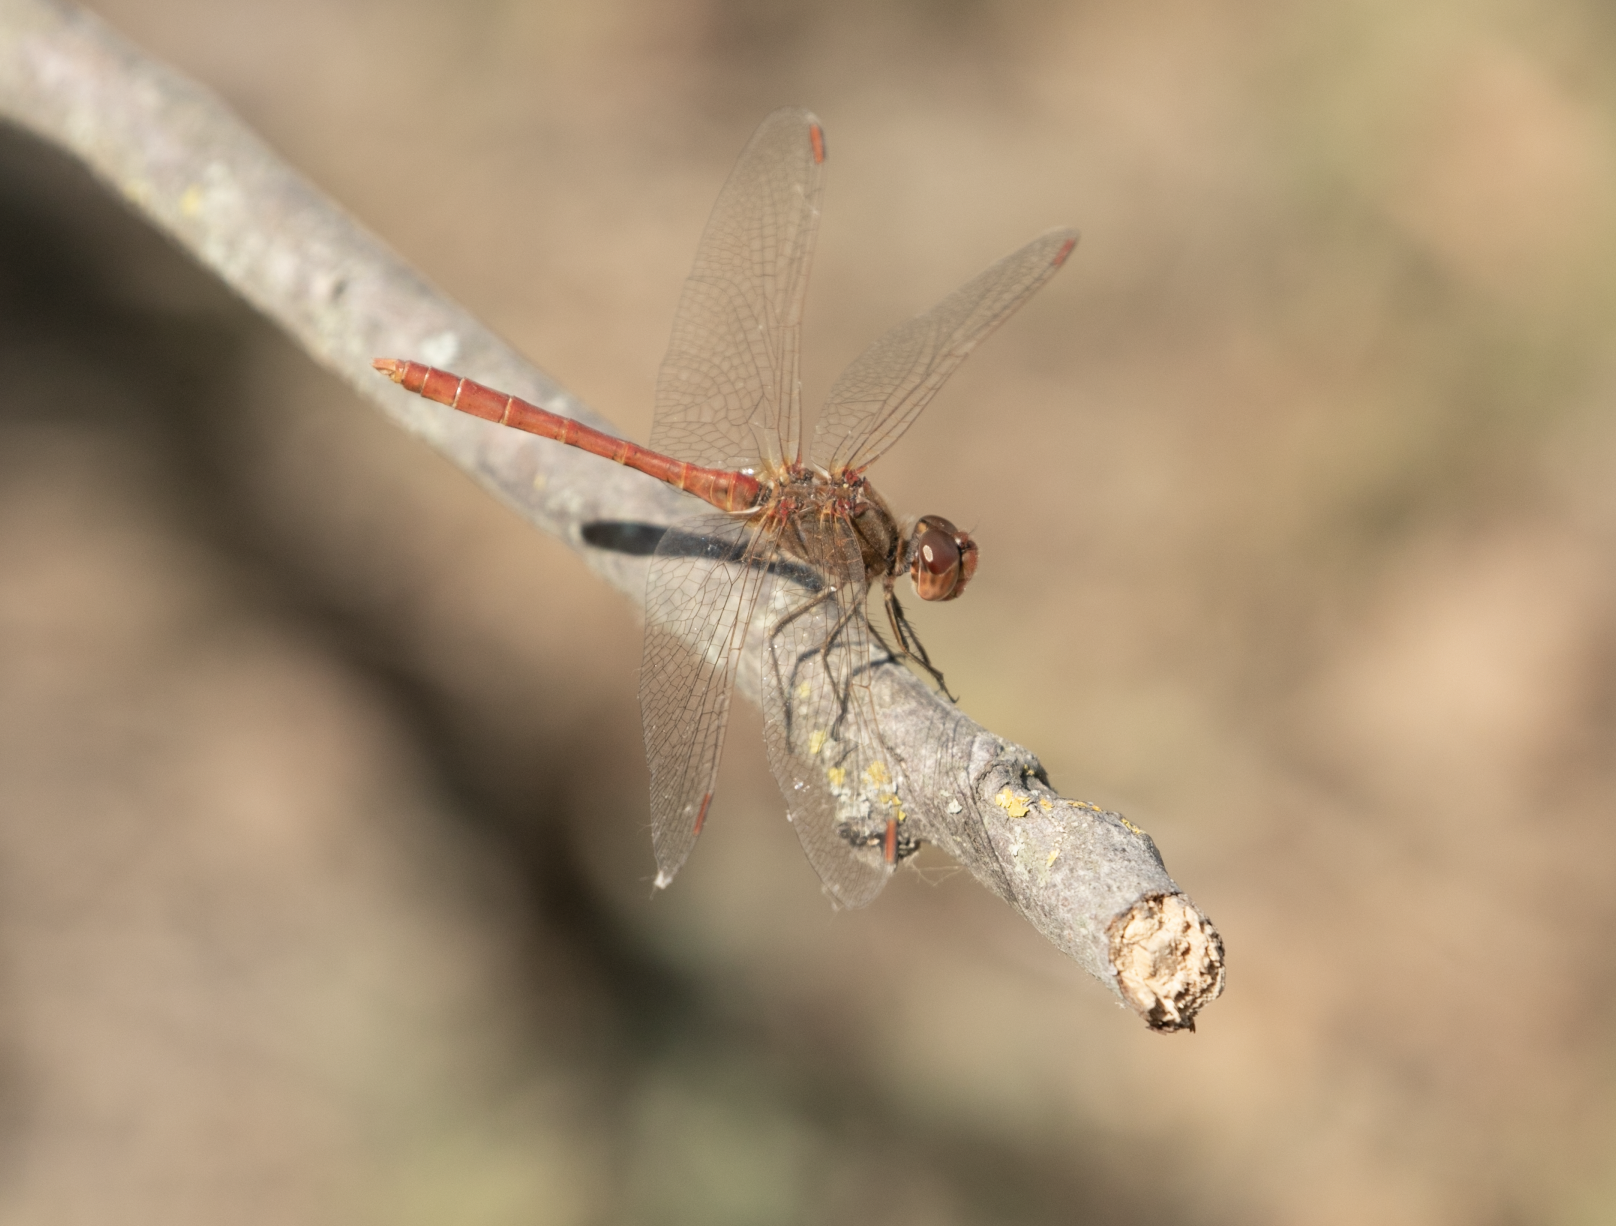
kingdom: Animalia
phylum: Arthropoda
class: Insecta
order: Odonata
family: Libellulidae
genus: Sympetrum
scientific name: Sympetrum meridionale
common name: Southern darter
